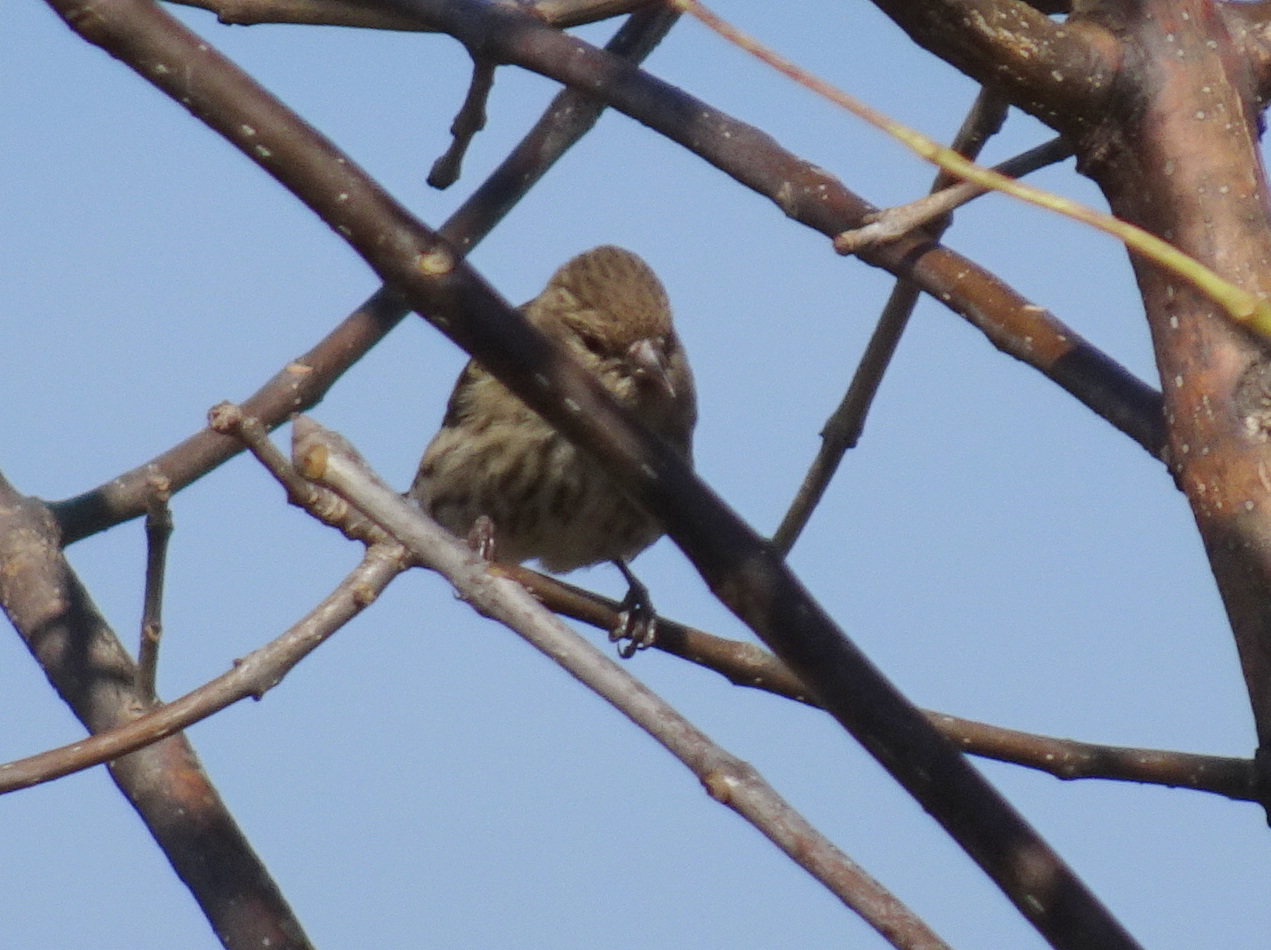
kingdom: Animalia
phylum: Chordata
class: Aves
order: Passeriformes
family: Fringillidae
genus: Spinus
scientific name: Spinus pinus
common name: Pine siskin
